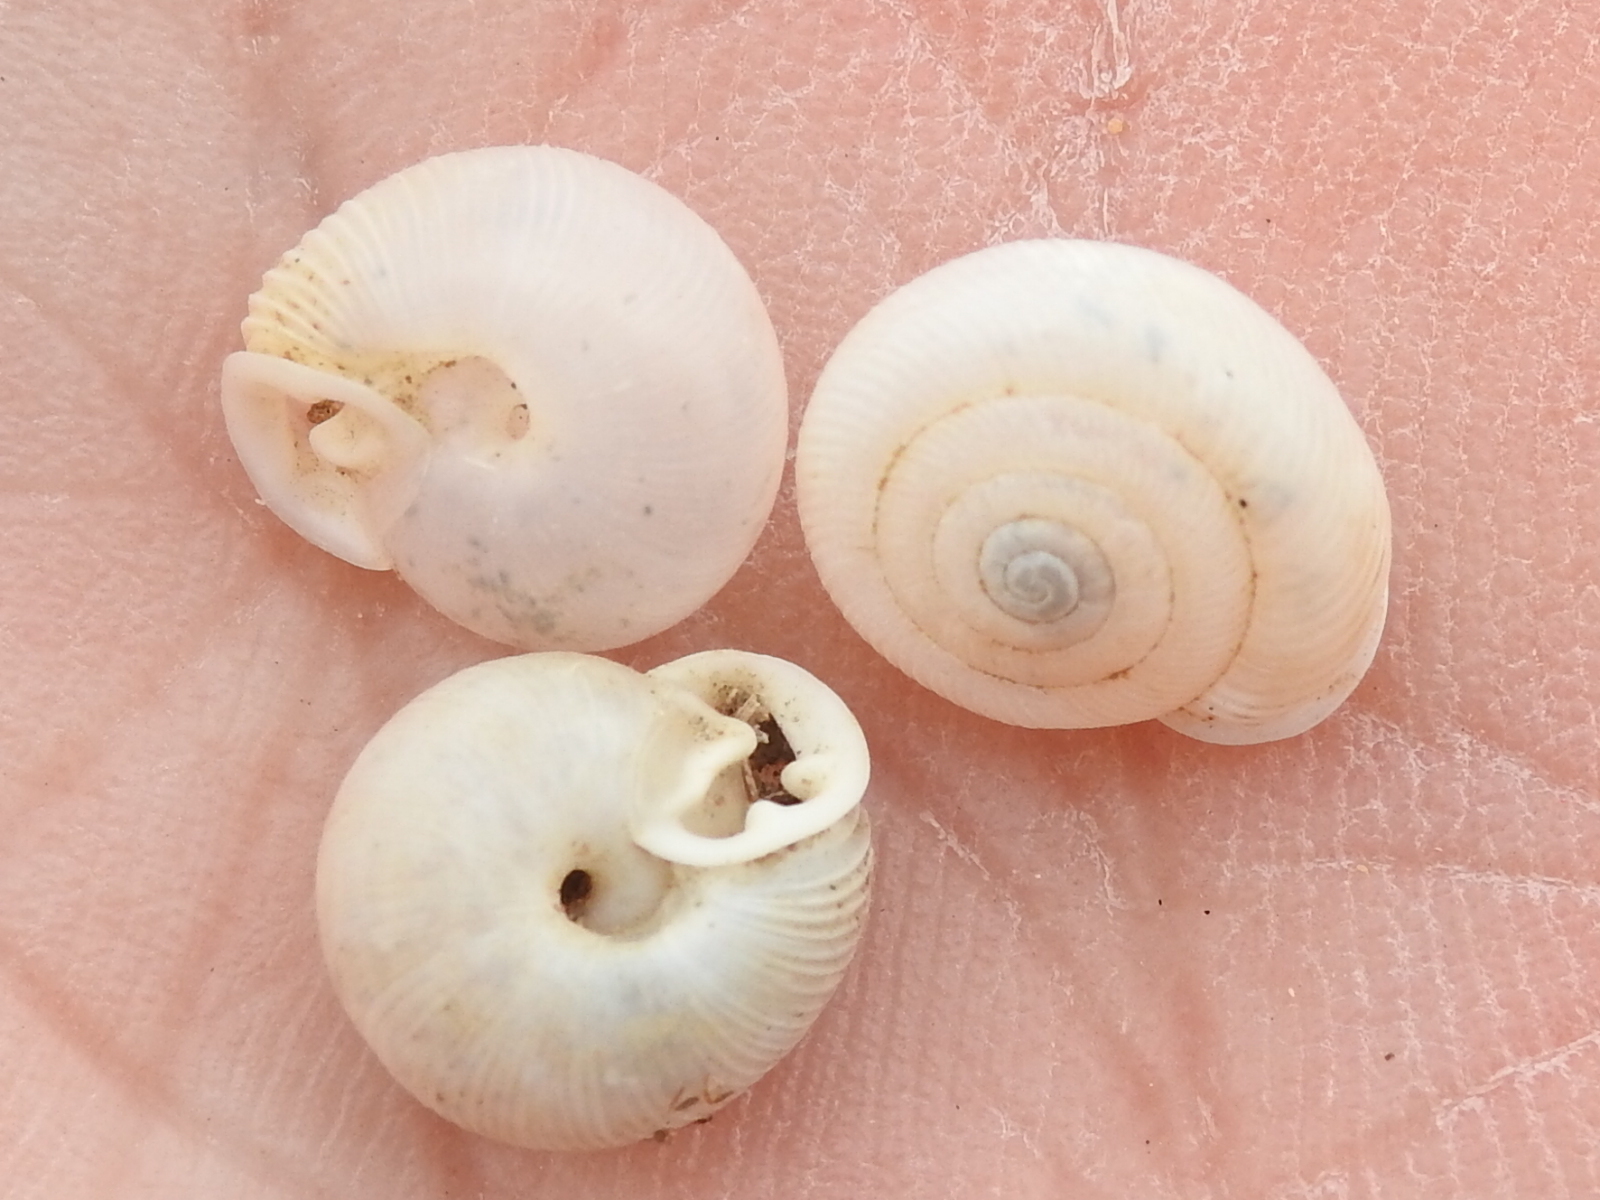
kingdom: Animalia
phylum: Mollusca
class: Gastropoda
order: Stylommatophora
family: Polygyridae
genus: Linisa
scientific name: Linisa texasiana
